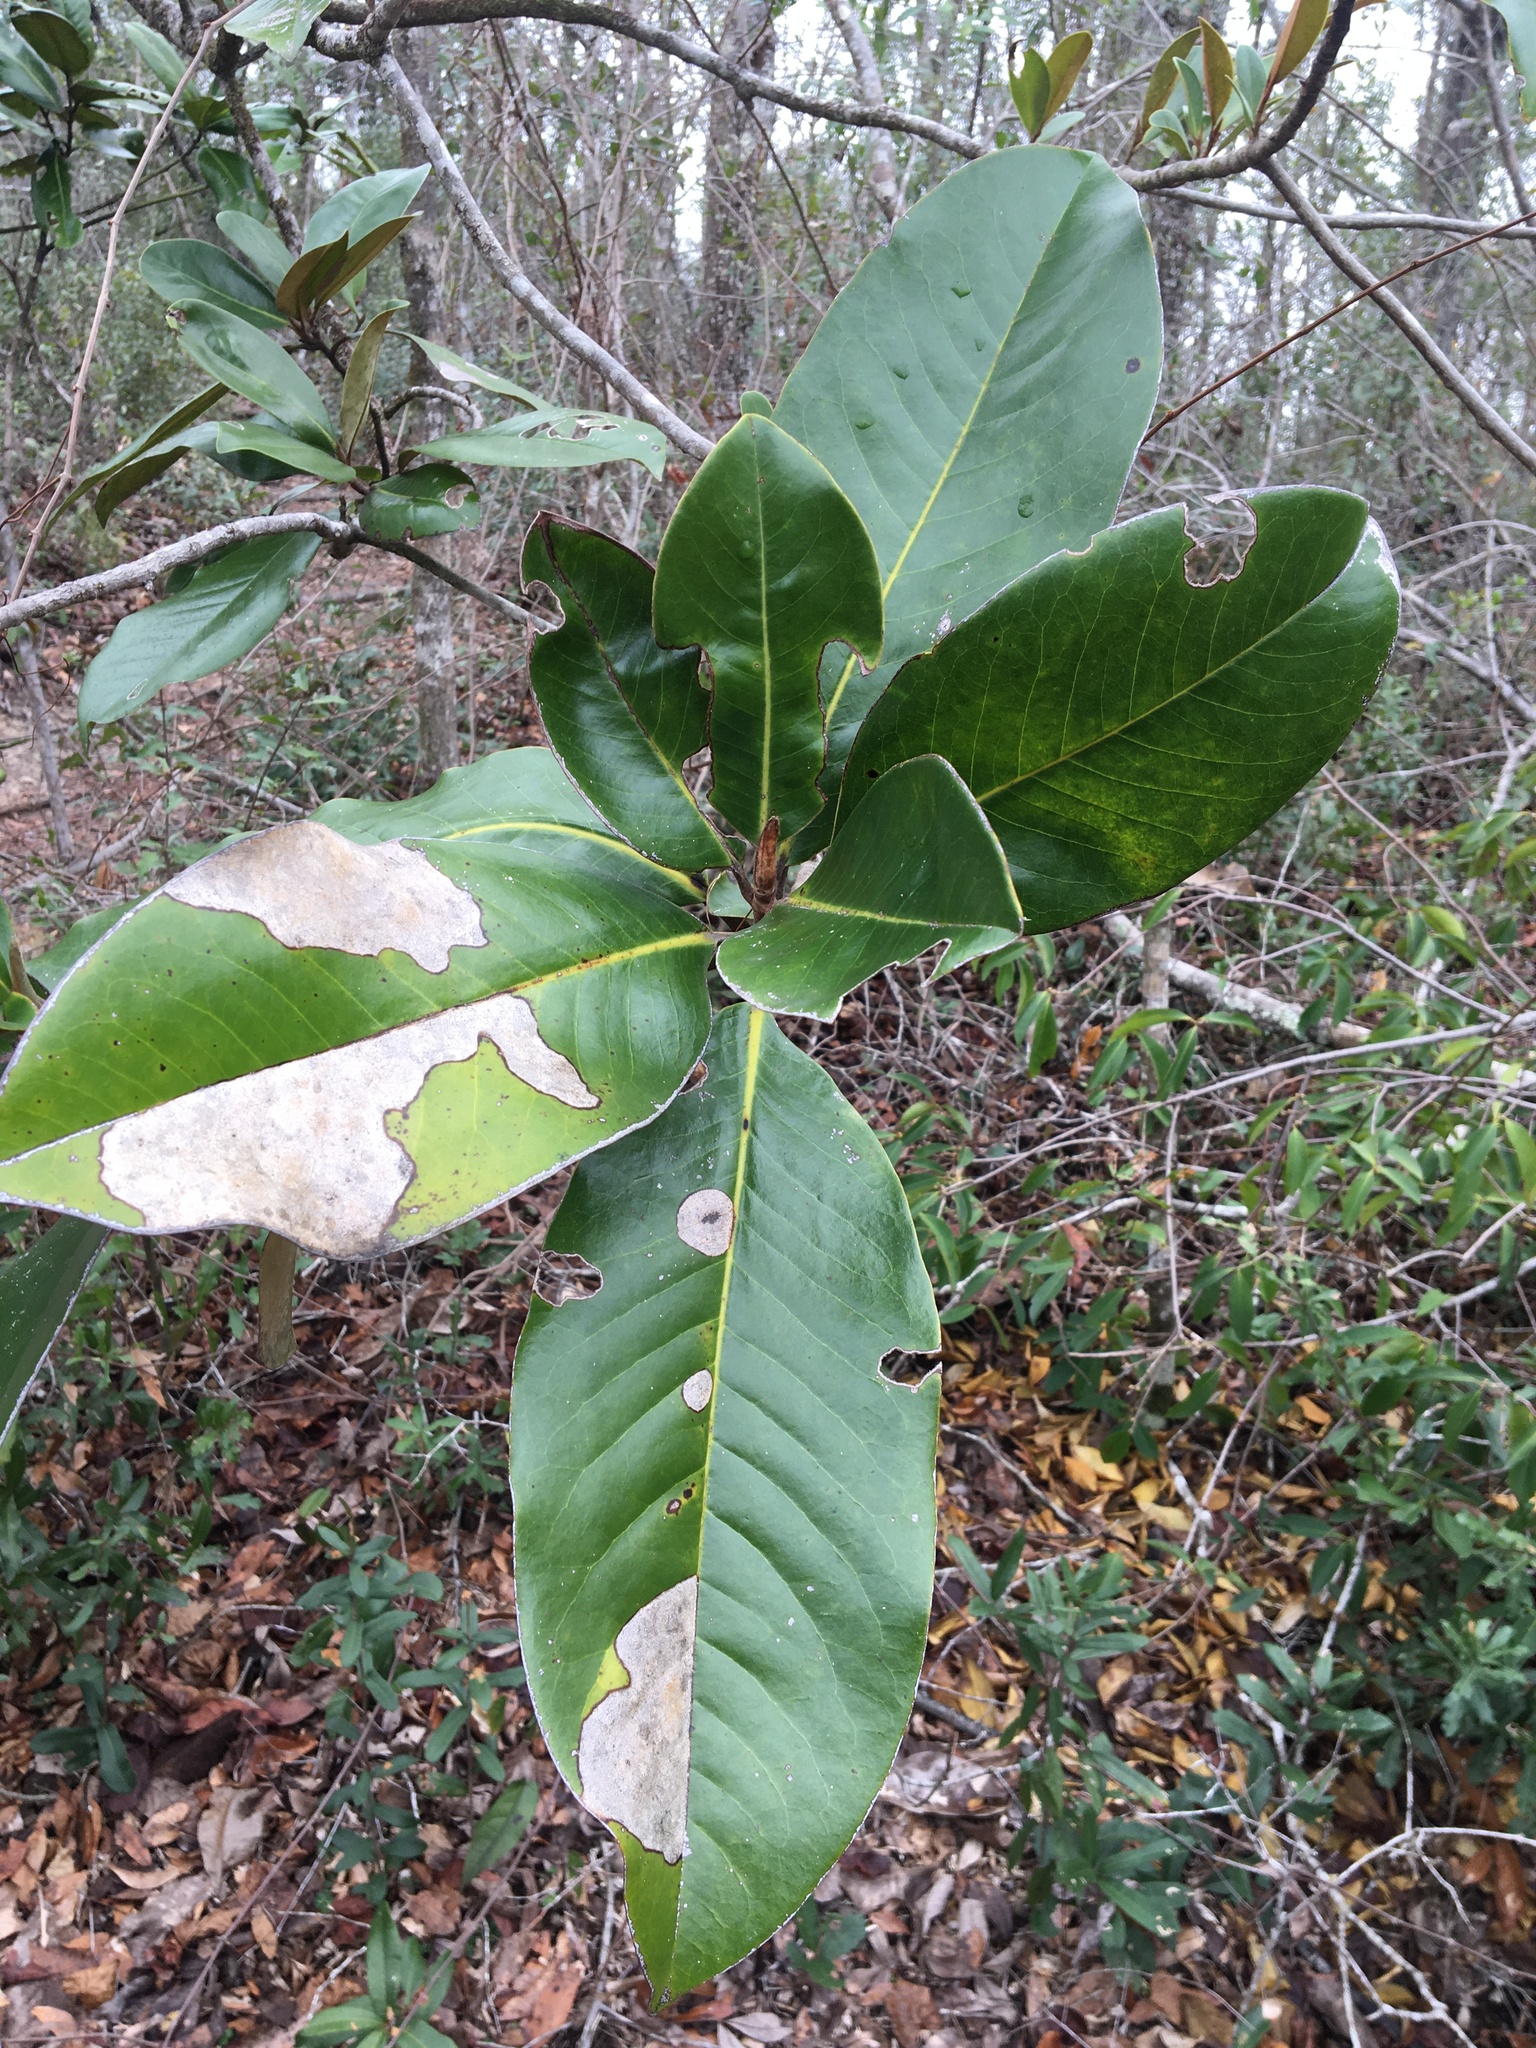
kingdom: Plantae
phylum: Tracheophyta
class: Magnoliopsida
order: Magnoliales
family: Magnoliaceae
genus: Magnolia
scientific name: Magnolia grandiflora
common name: Southern magnolia
